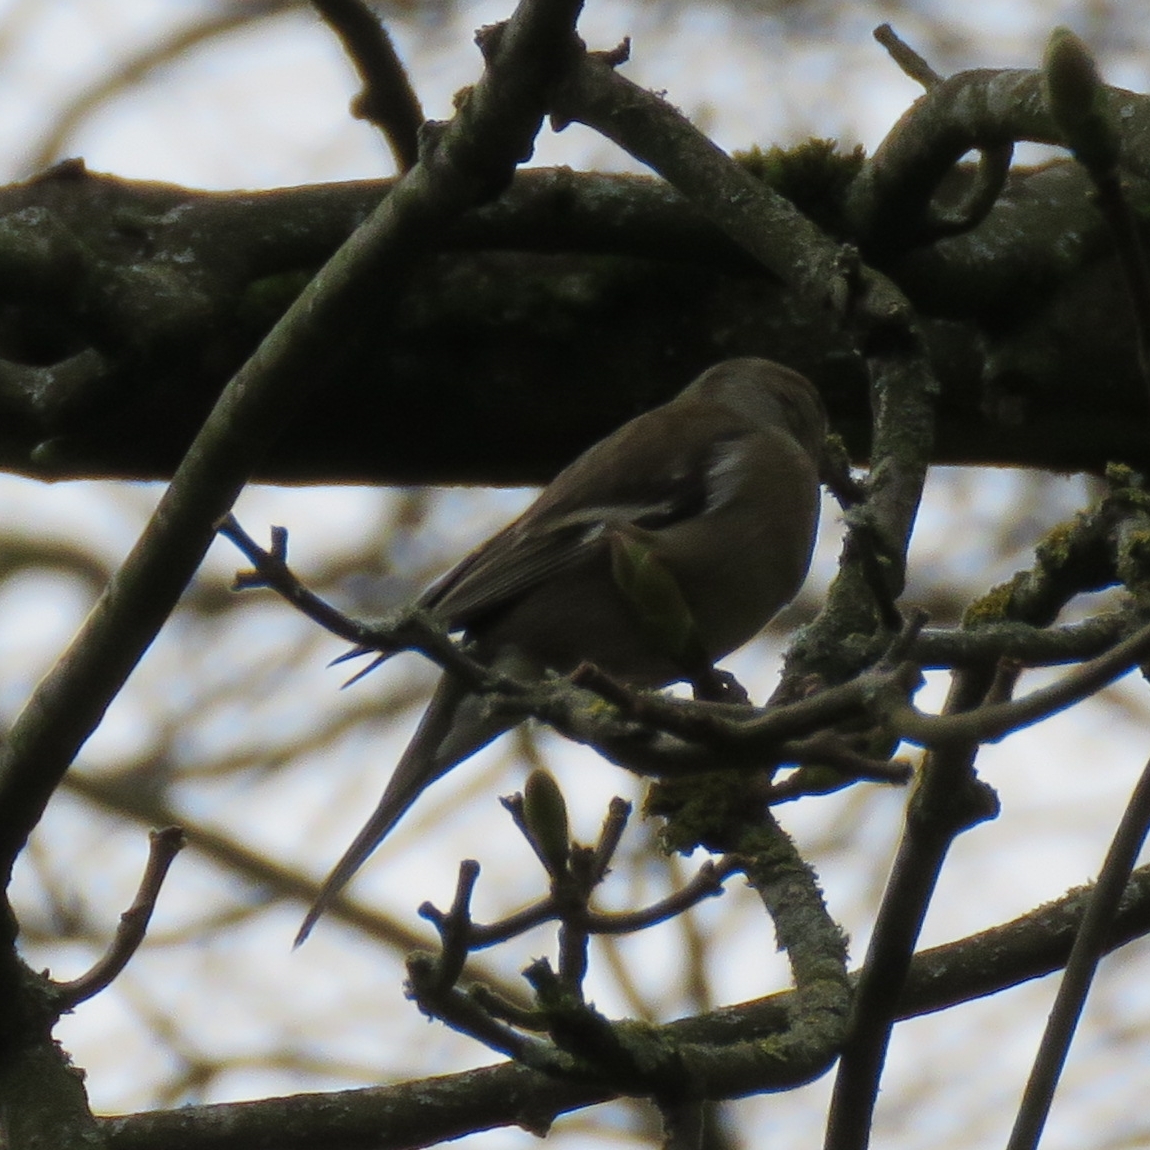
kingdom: Animalia
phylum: Chordata
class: Aves
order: Passeriformes
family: Fringillidae
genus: Fringilla
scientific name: Fringilla coelebs
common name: Common chaffinch
